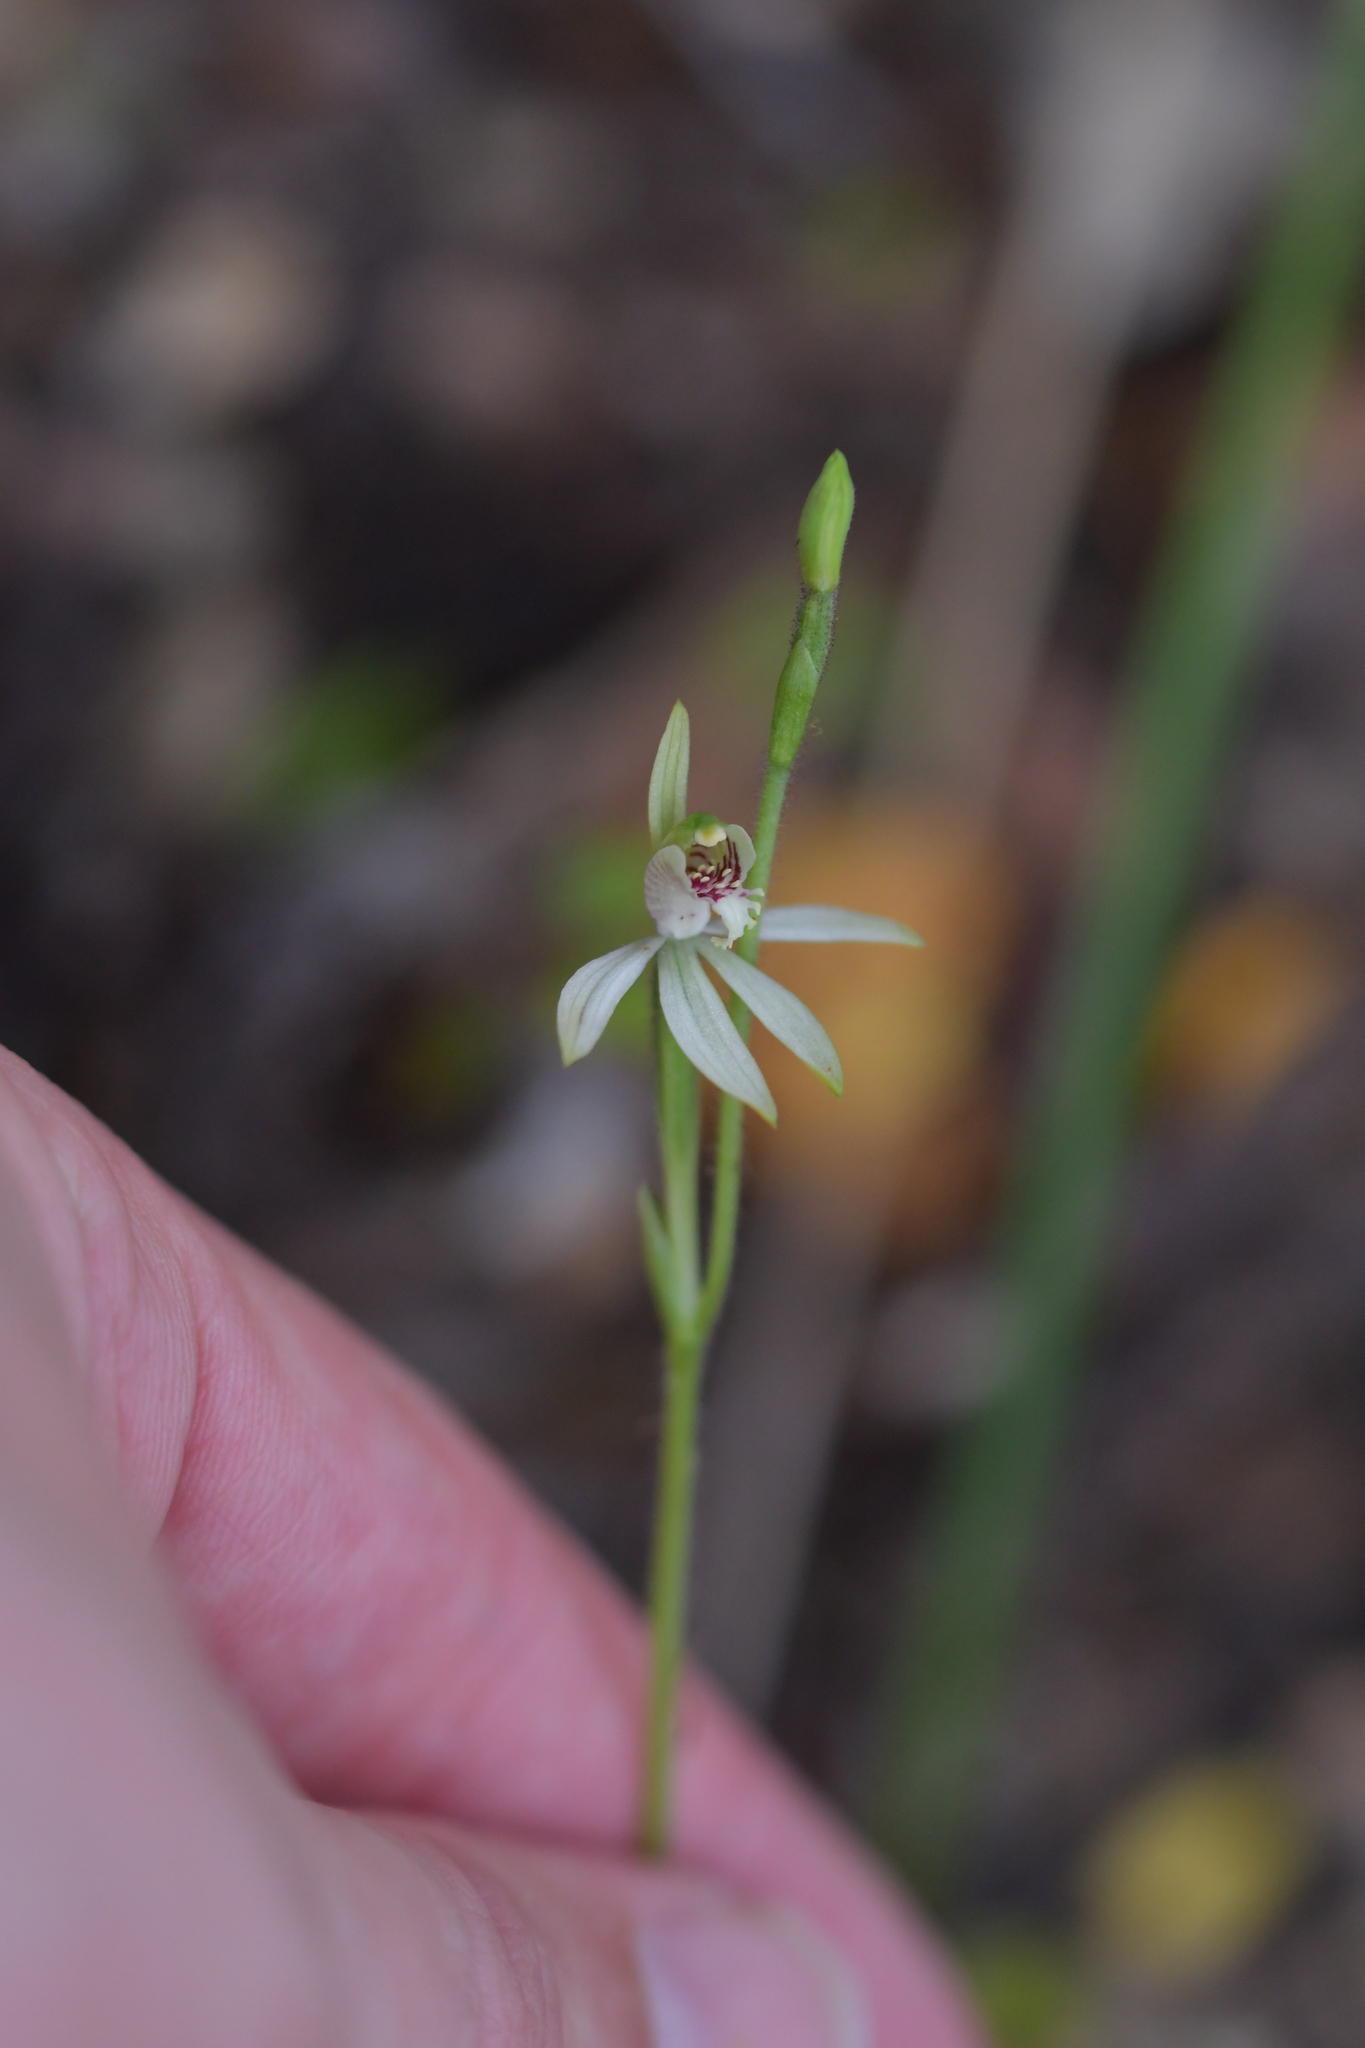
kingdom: Plantae
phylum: Tracheophyta
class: Liliopsida
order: Asparagales
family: Orchidaceae
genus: Caladenia
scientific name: Caladenia chlorostyla
